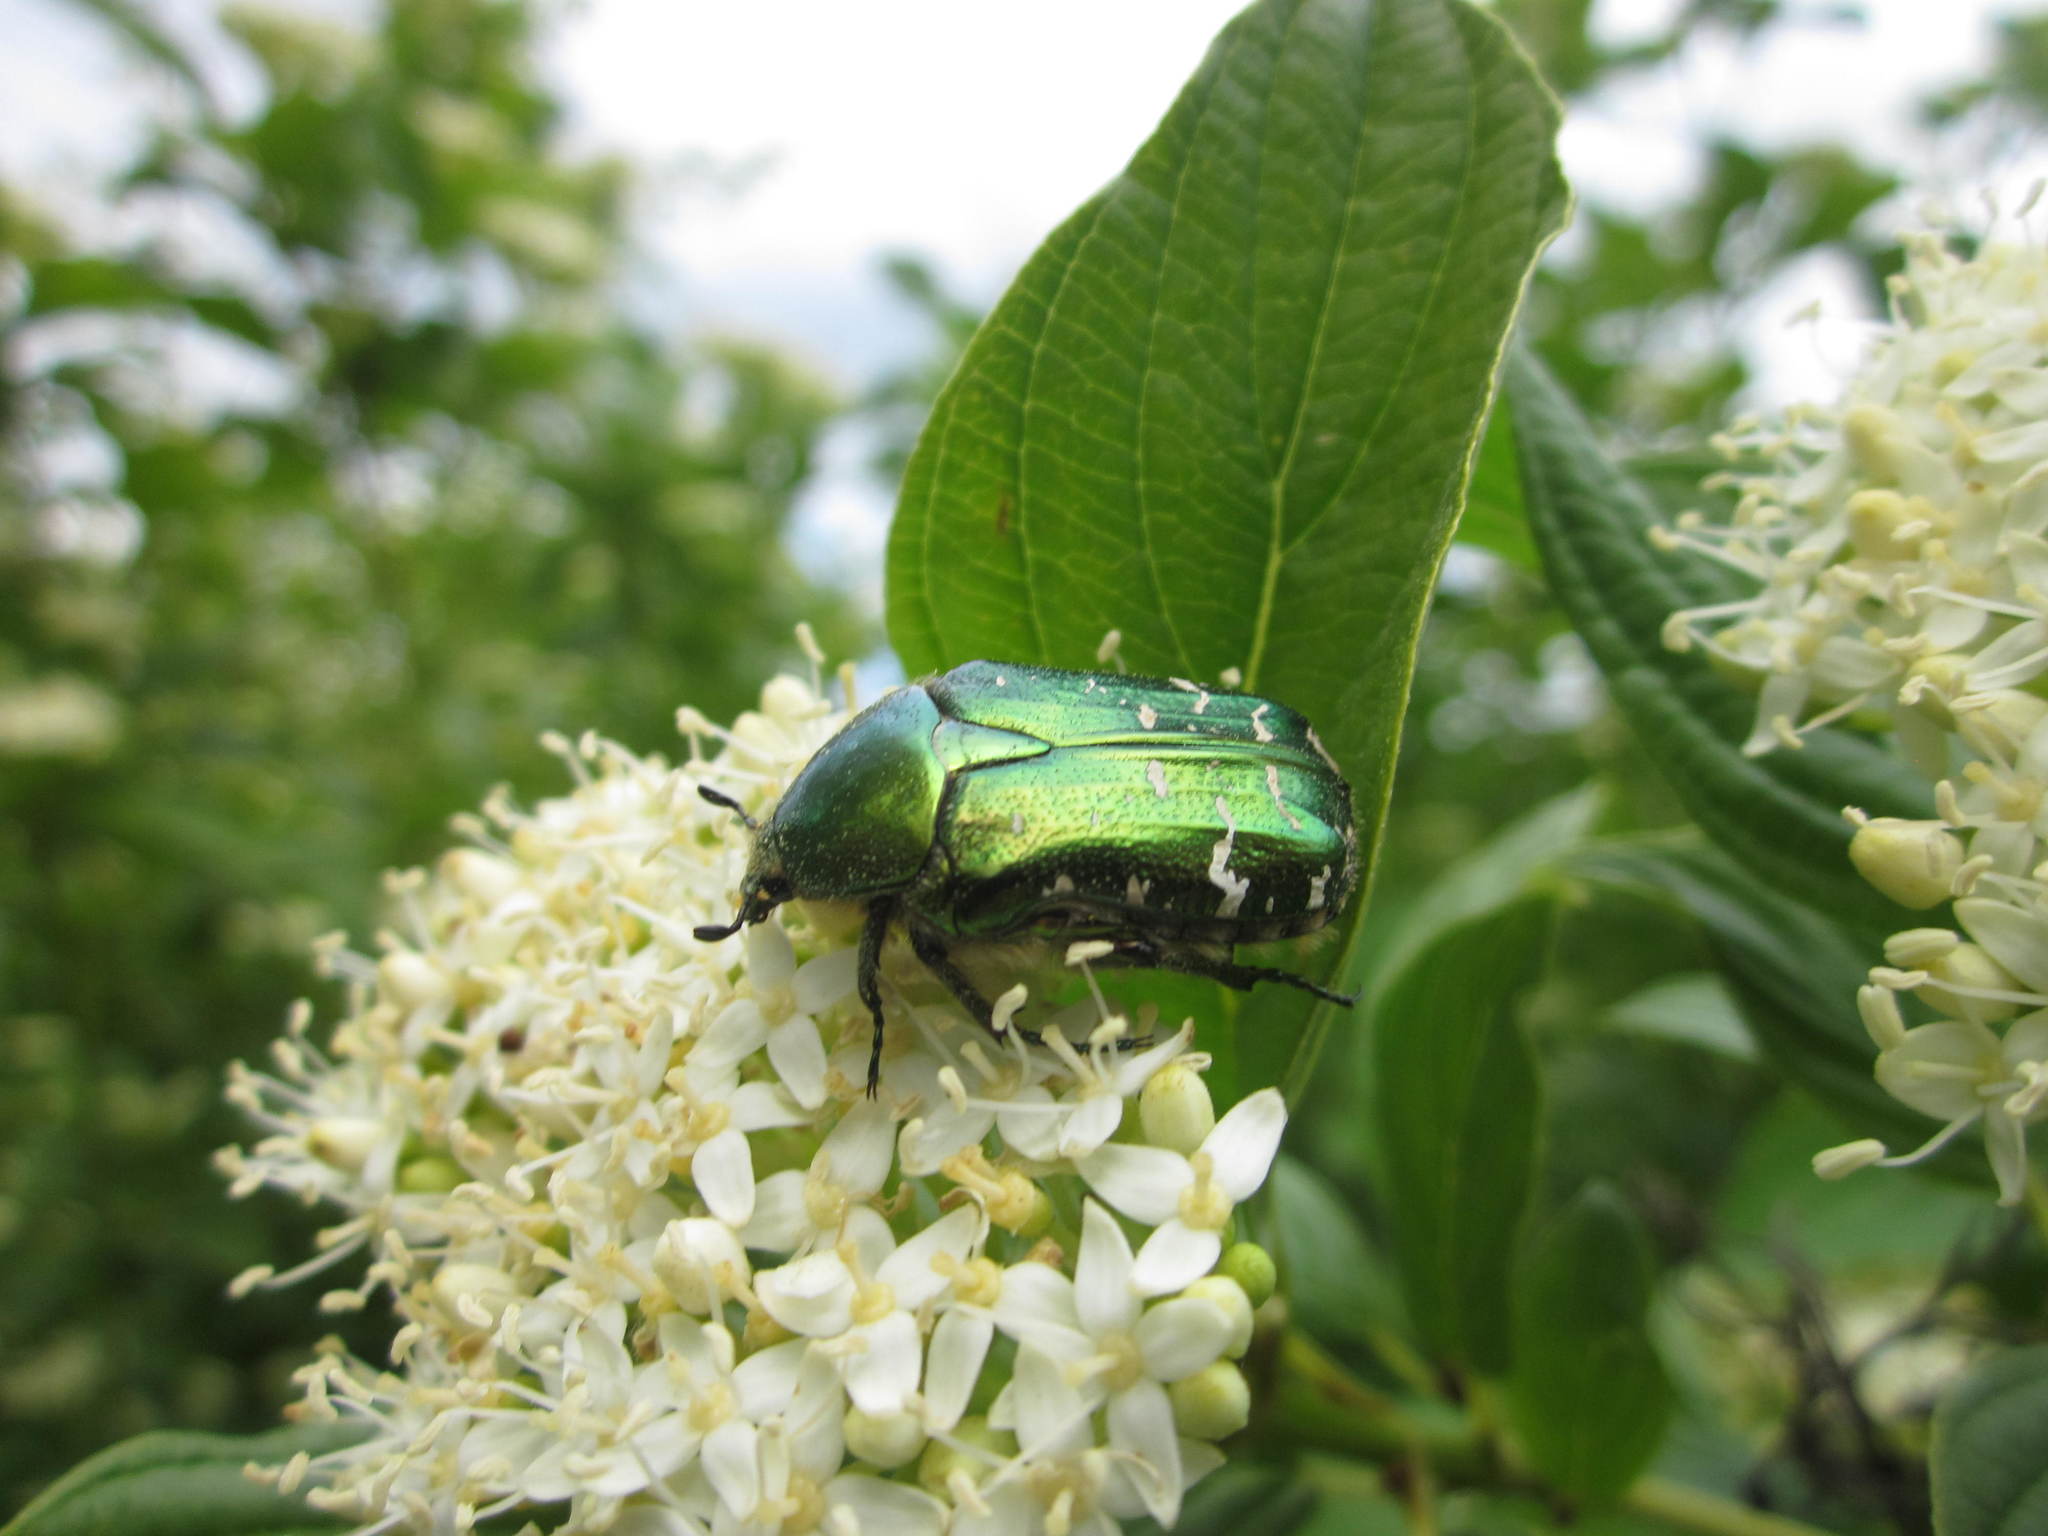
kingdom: Animalia
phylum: Arthropoda
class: Insecta
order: Coleoptera
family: Scarabaeidae
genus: Cetonia
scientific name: Cetonia aurata
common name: Rose chafer
